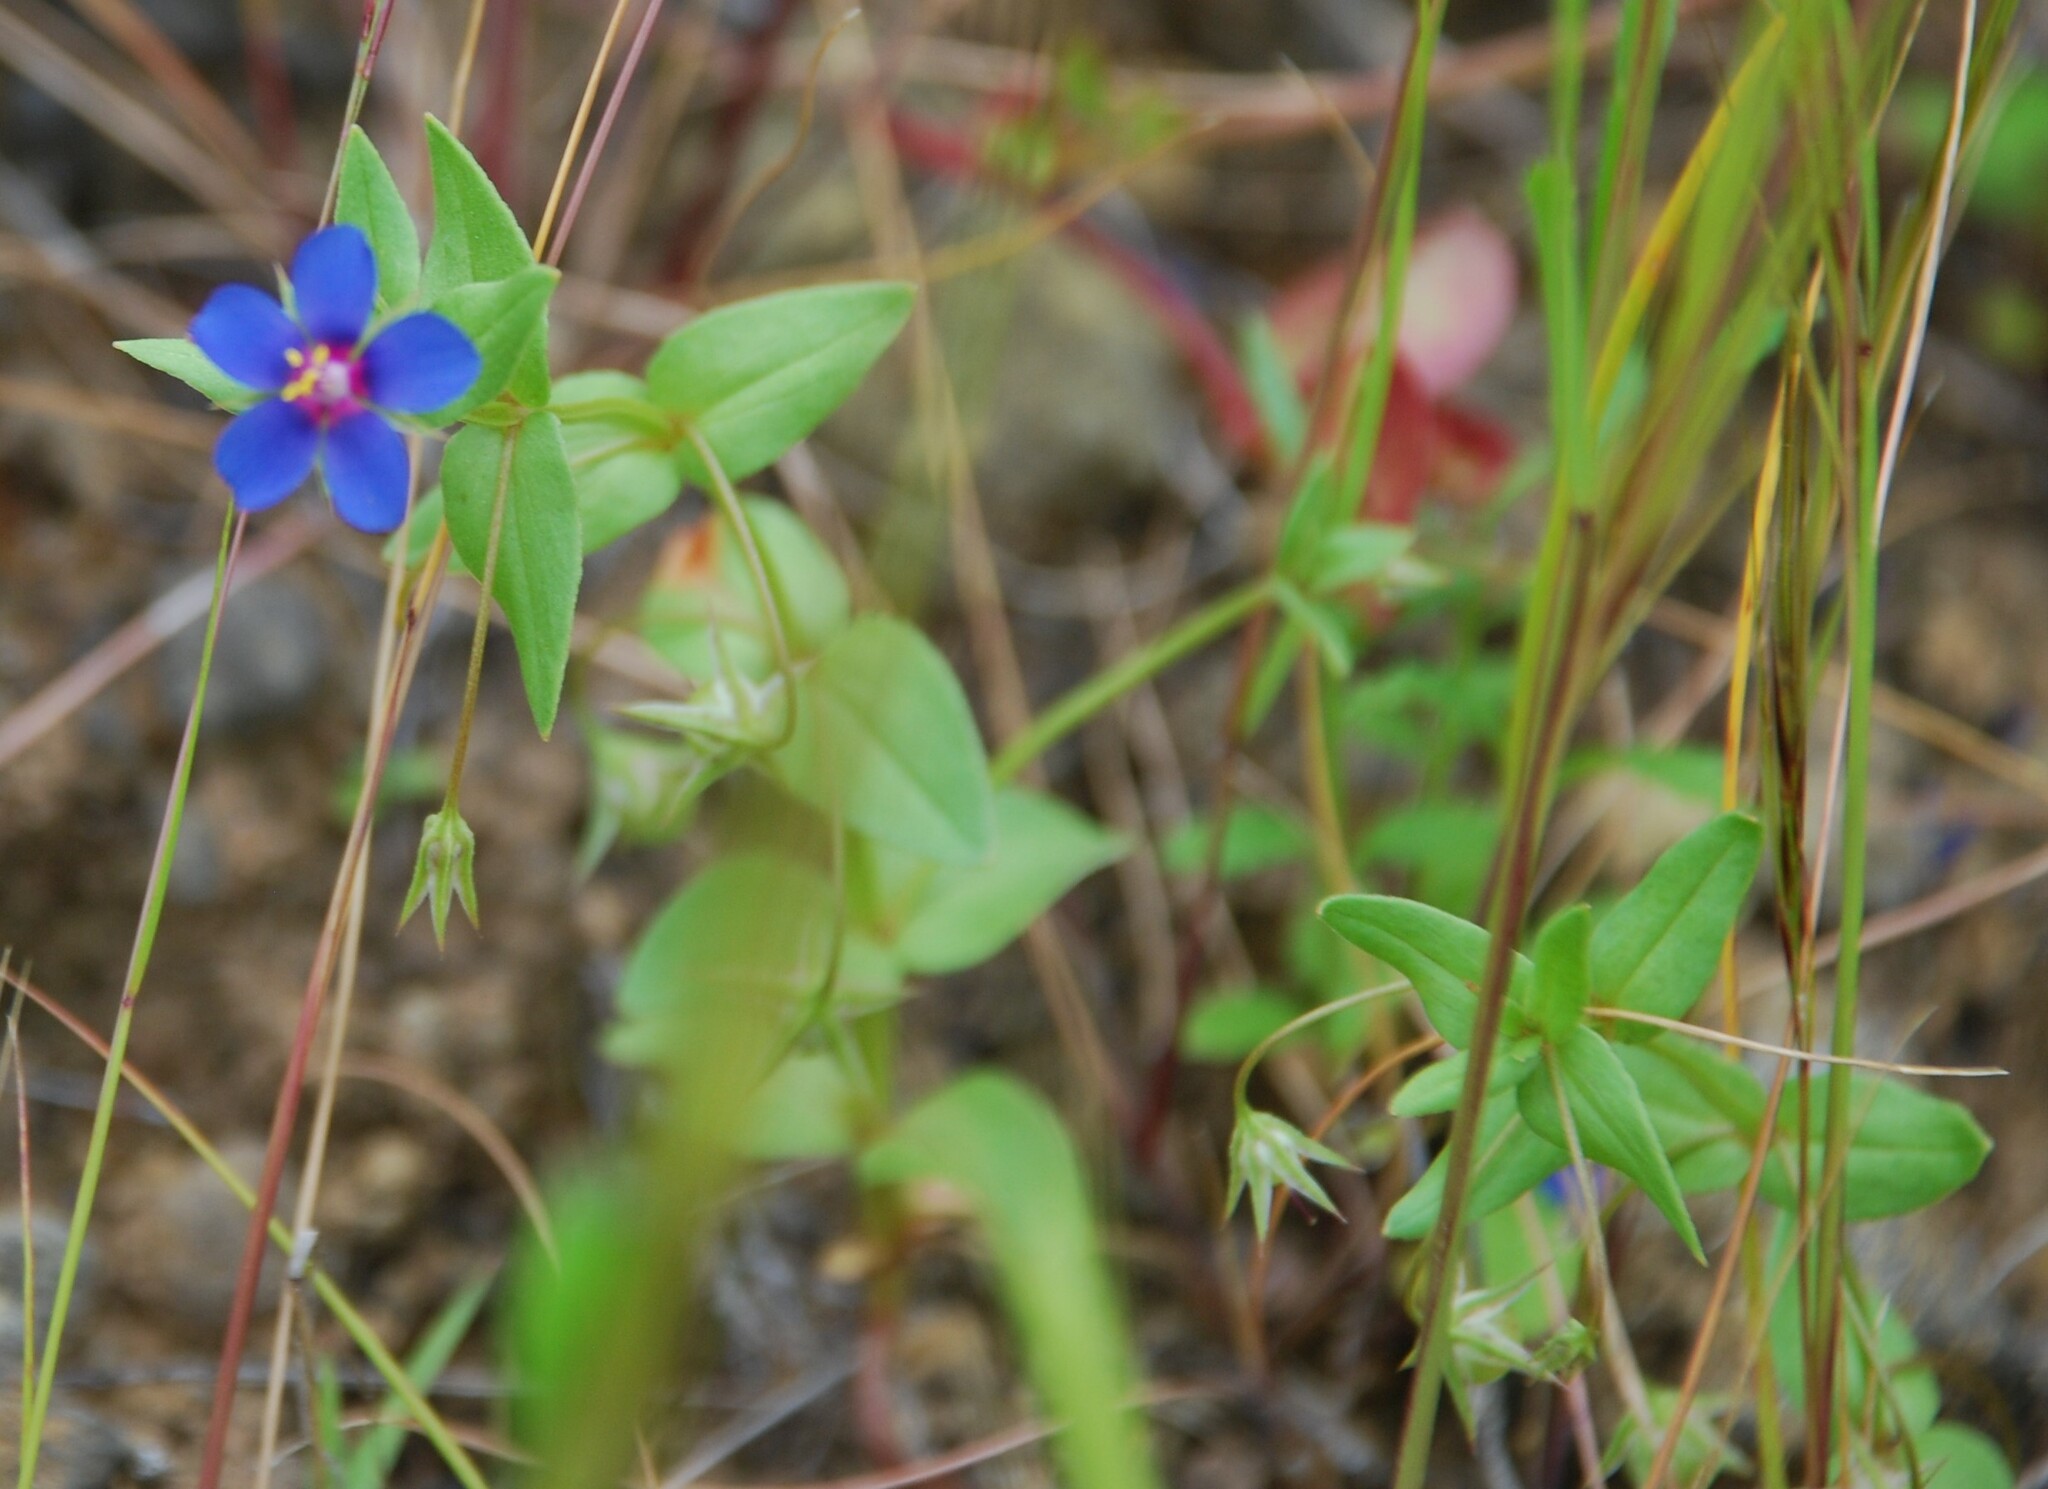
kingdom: Plantae
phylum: Tracheophyta
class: Magnoliopsida
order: Ericales
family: Primulaceae
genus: Lysimachia
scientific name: Lysimachia loeflingii
